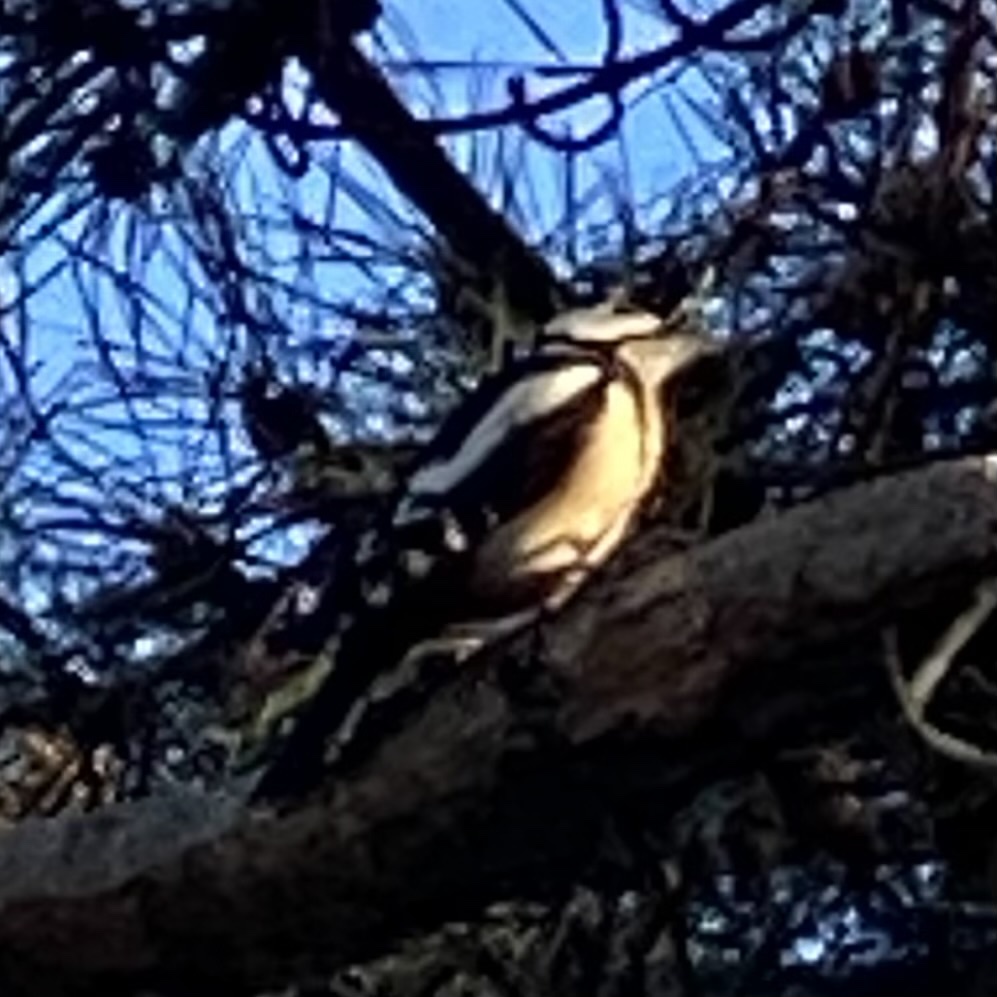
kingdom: Animalia
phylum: Chordata
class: Aves
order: Piciformes
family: Picidae
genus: Dendrocopos
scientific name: Dendrocopos major
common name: Great spotted woodpecker
